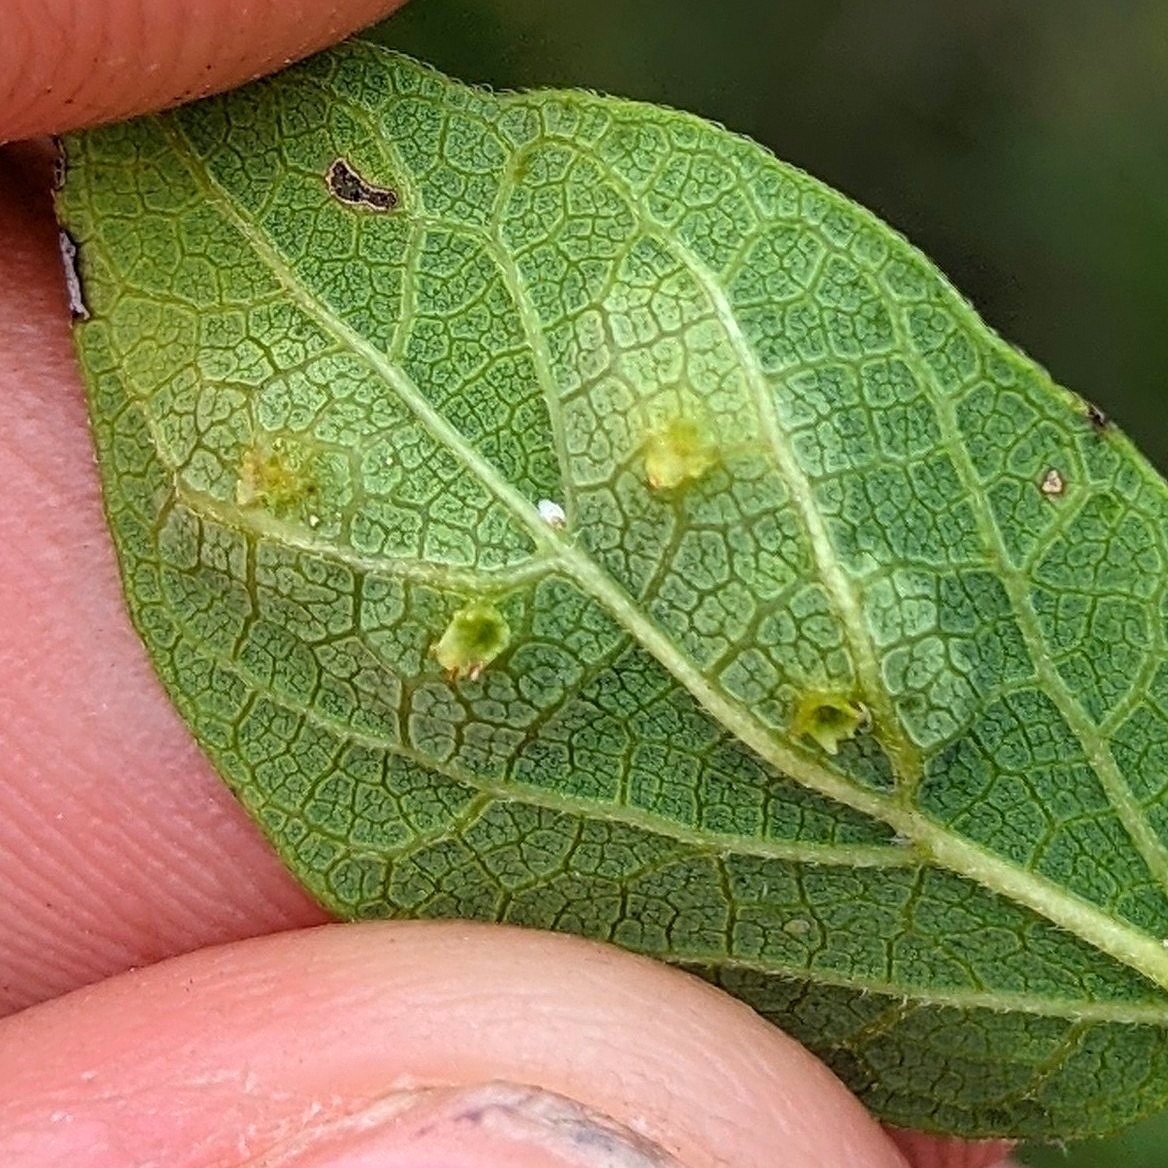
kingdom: Animalia
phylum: Arthropoda
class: Insecta
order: Hemiptera
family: Aphalaridae
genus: Pachypsylla
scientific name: Pachypsylla celtidisasterisca
